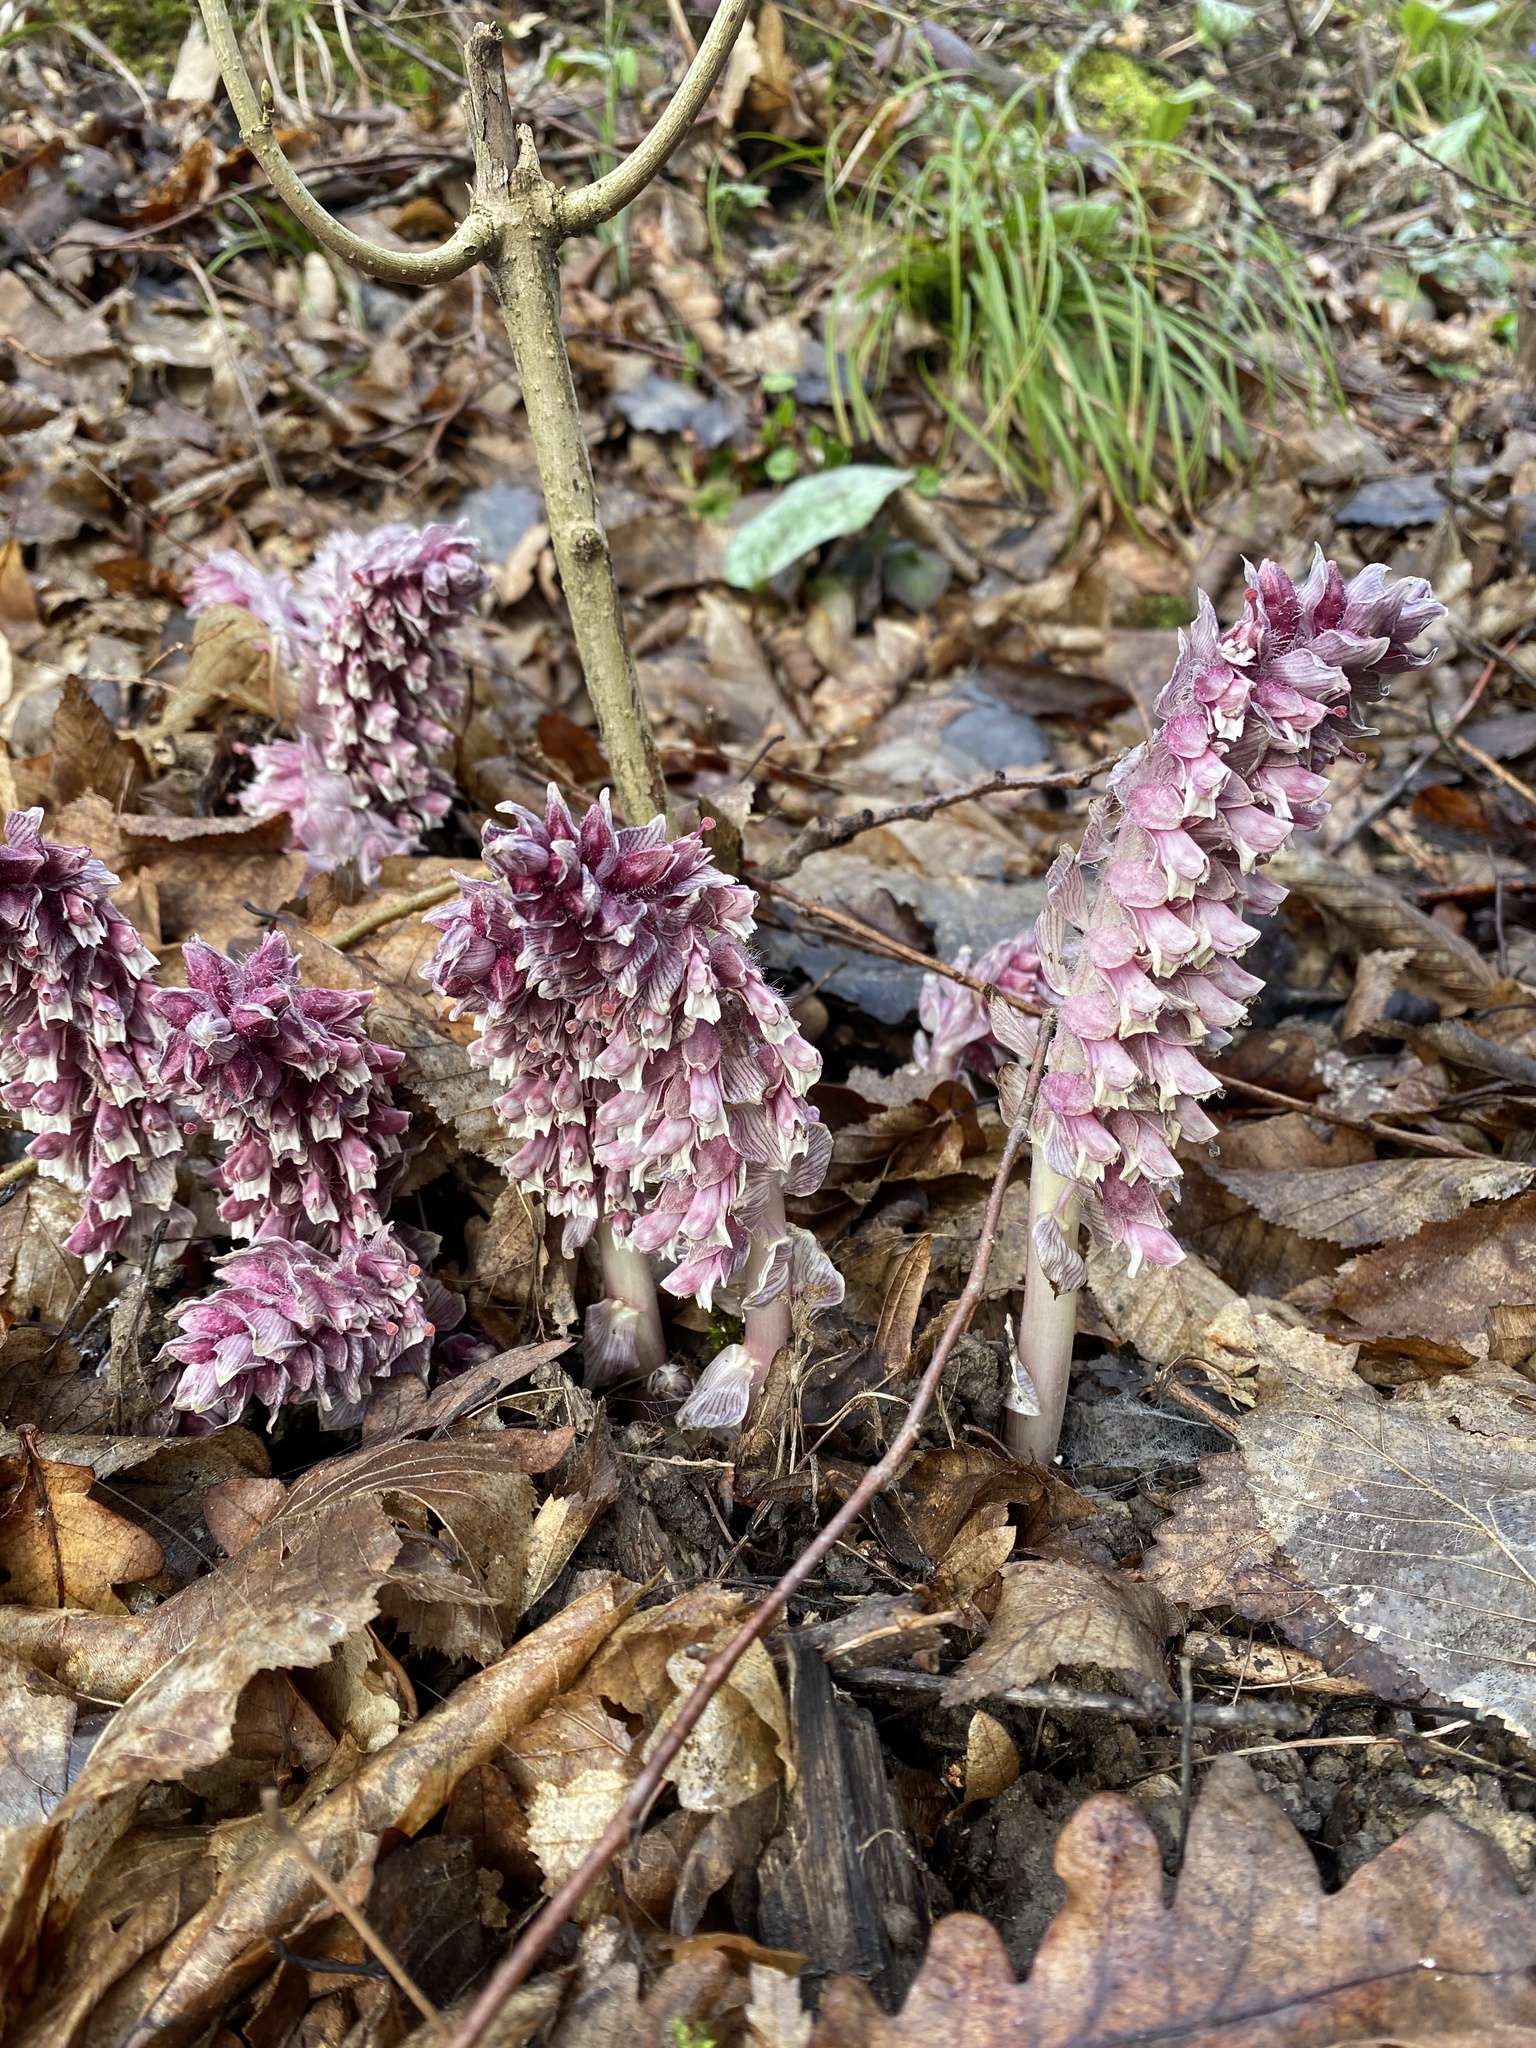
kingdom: Plantae
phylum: Tracheophyta
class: Magnoliopsida
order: Lamiales
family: Orobanchaceae
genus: Lathraea
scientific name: Lathraea squamaria
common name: Toothwort
